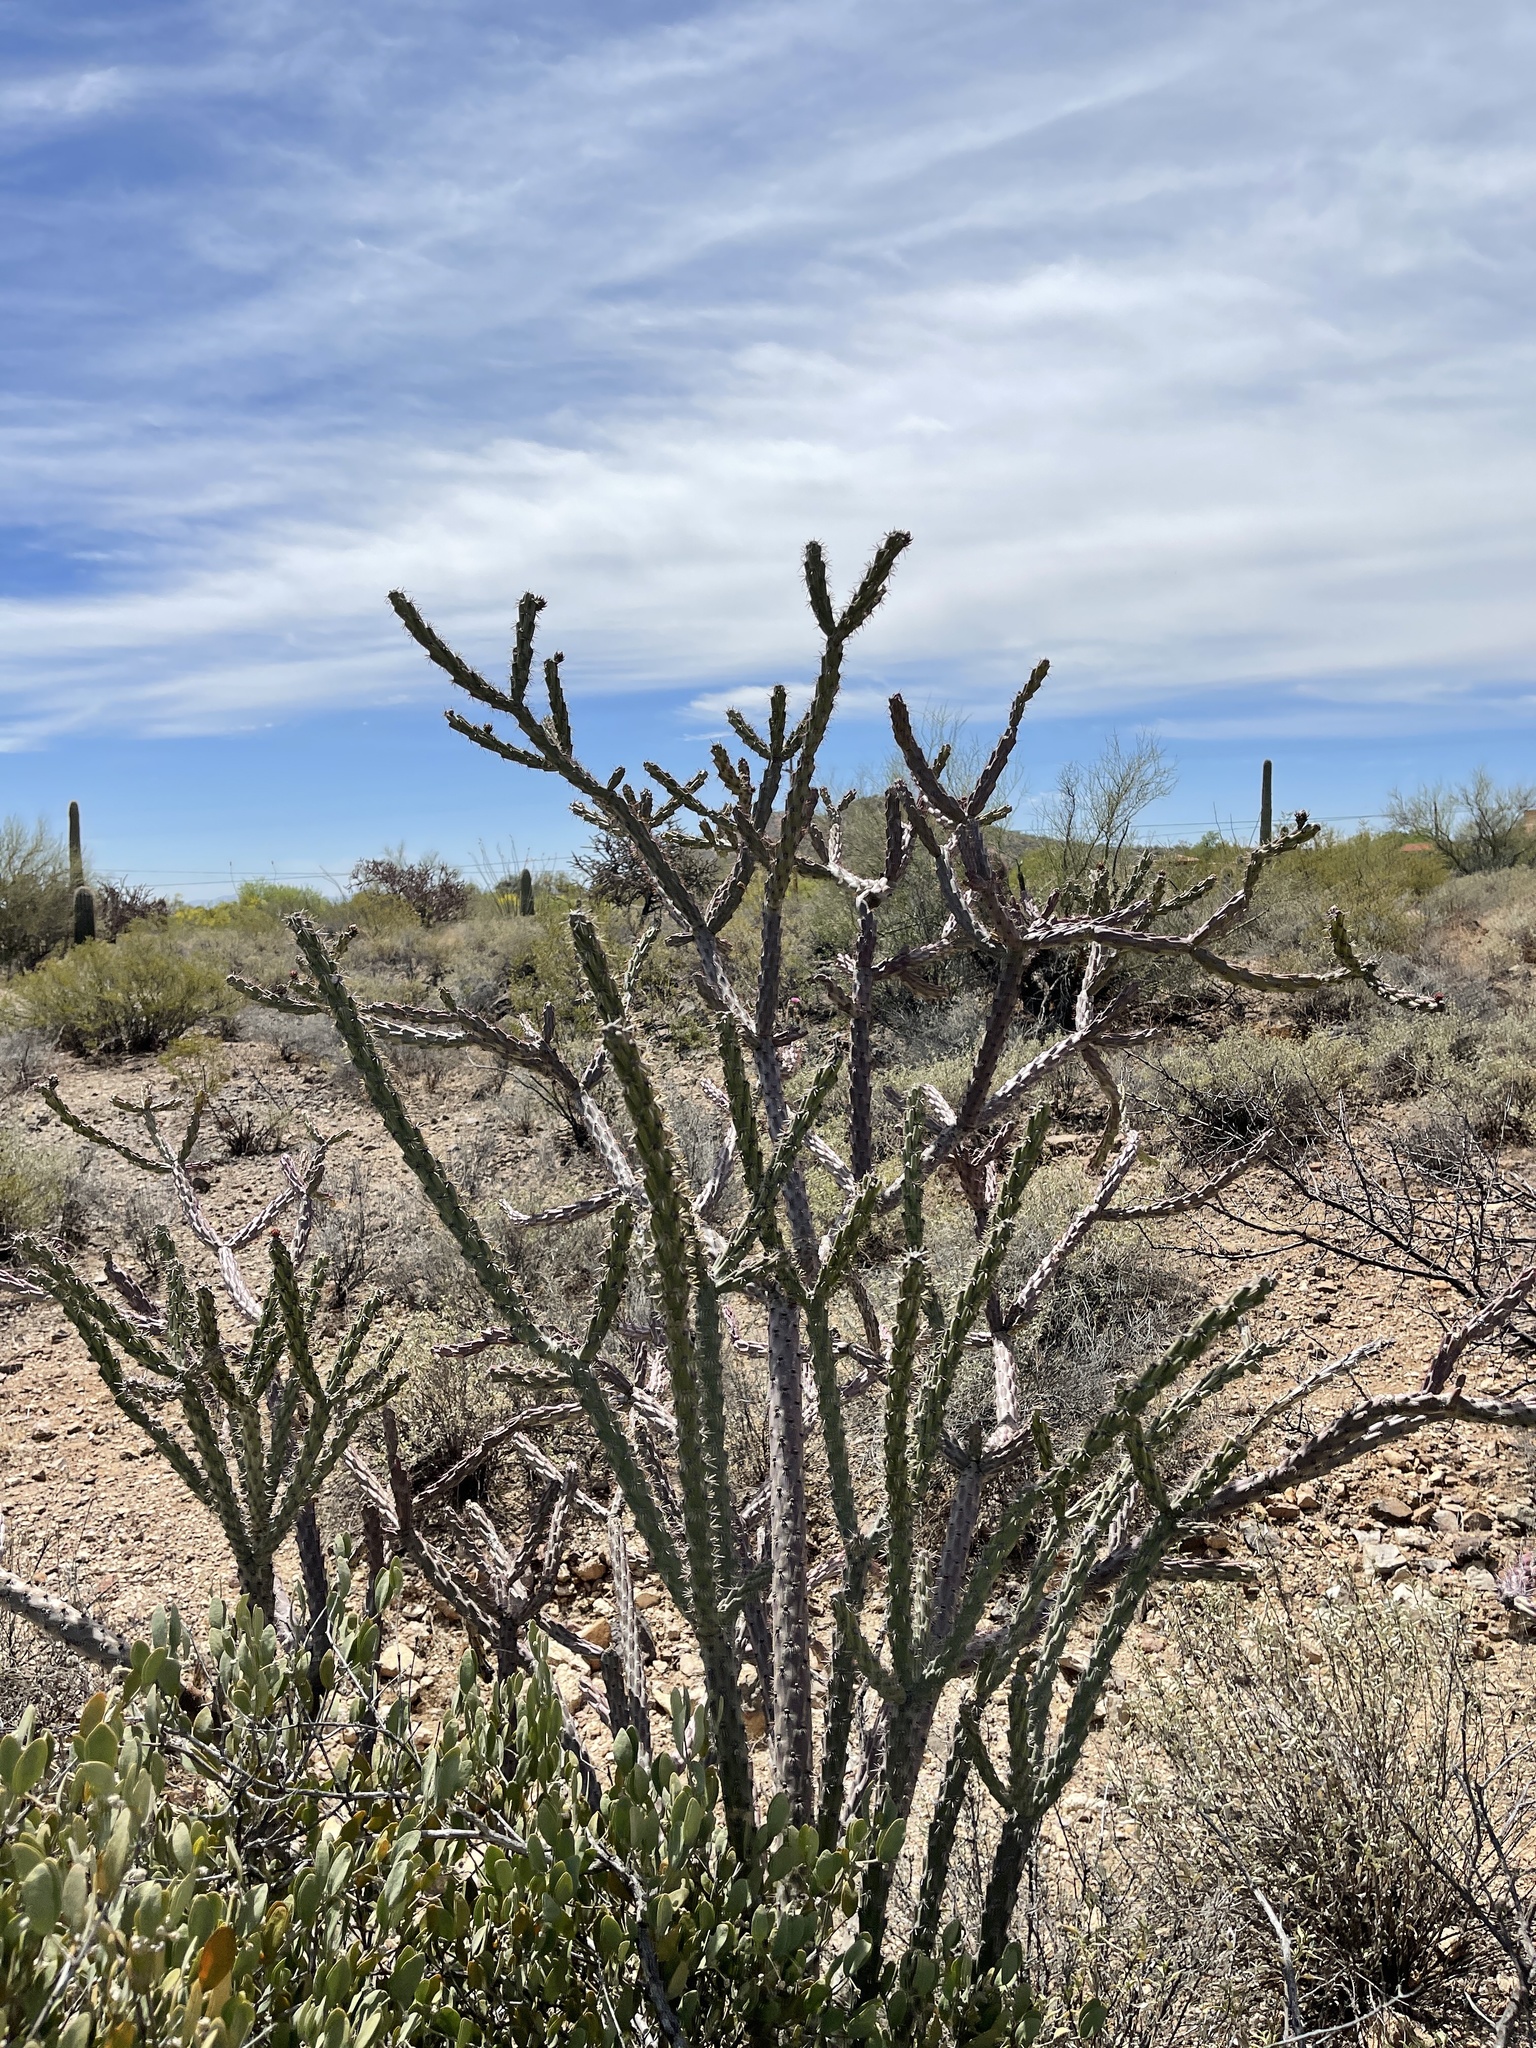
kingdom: Plantae
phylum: Tracheophyta
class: Magnoliopsida
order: Caryophyllales
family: Cactaceae
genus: Cylindropuntia
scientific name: Cylindropuntia thurberi
